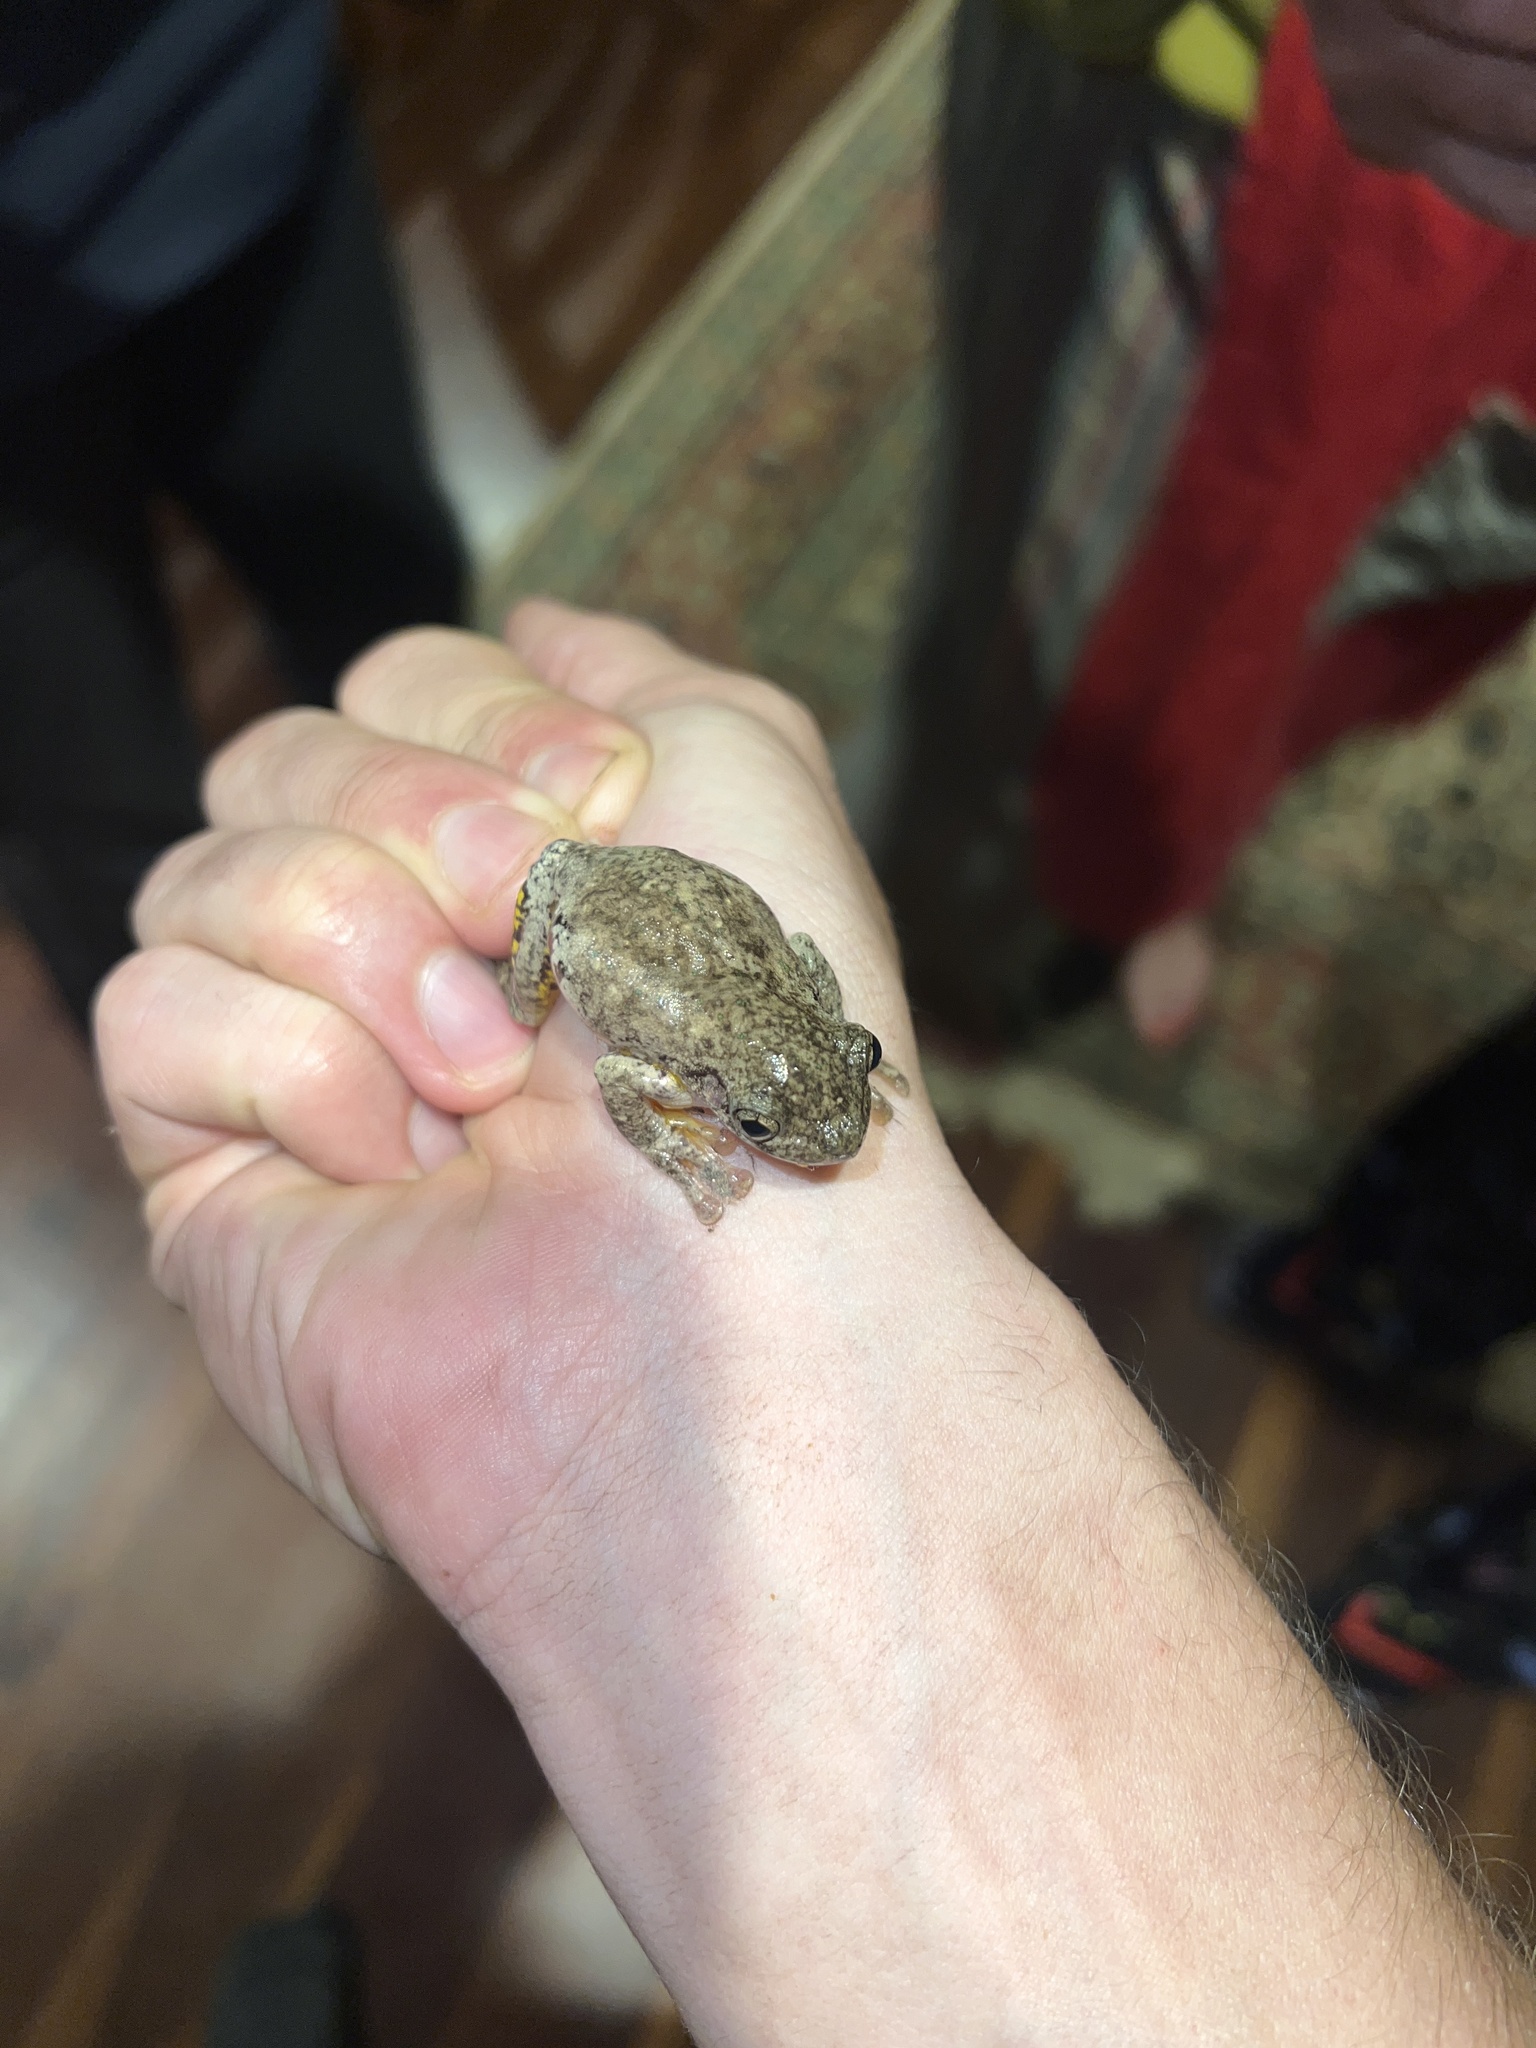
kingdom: Animalia
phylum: Chordata
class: Amphibia
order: Anura
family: Pelodryadidae
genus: Litoria
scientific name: Litoria peronii
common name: Emerald spotted treefrog
